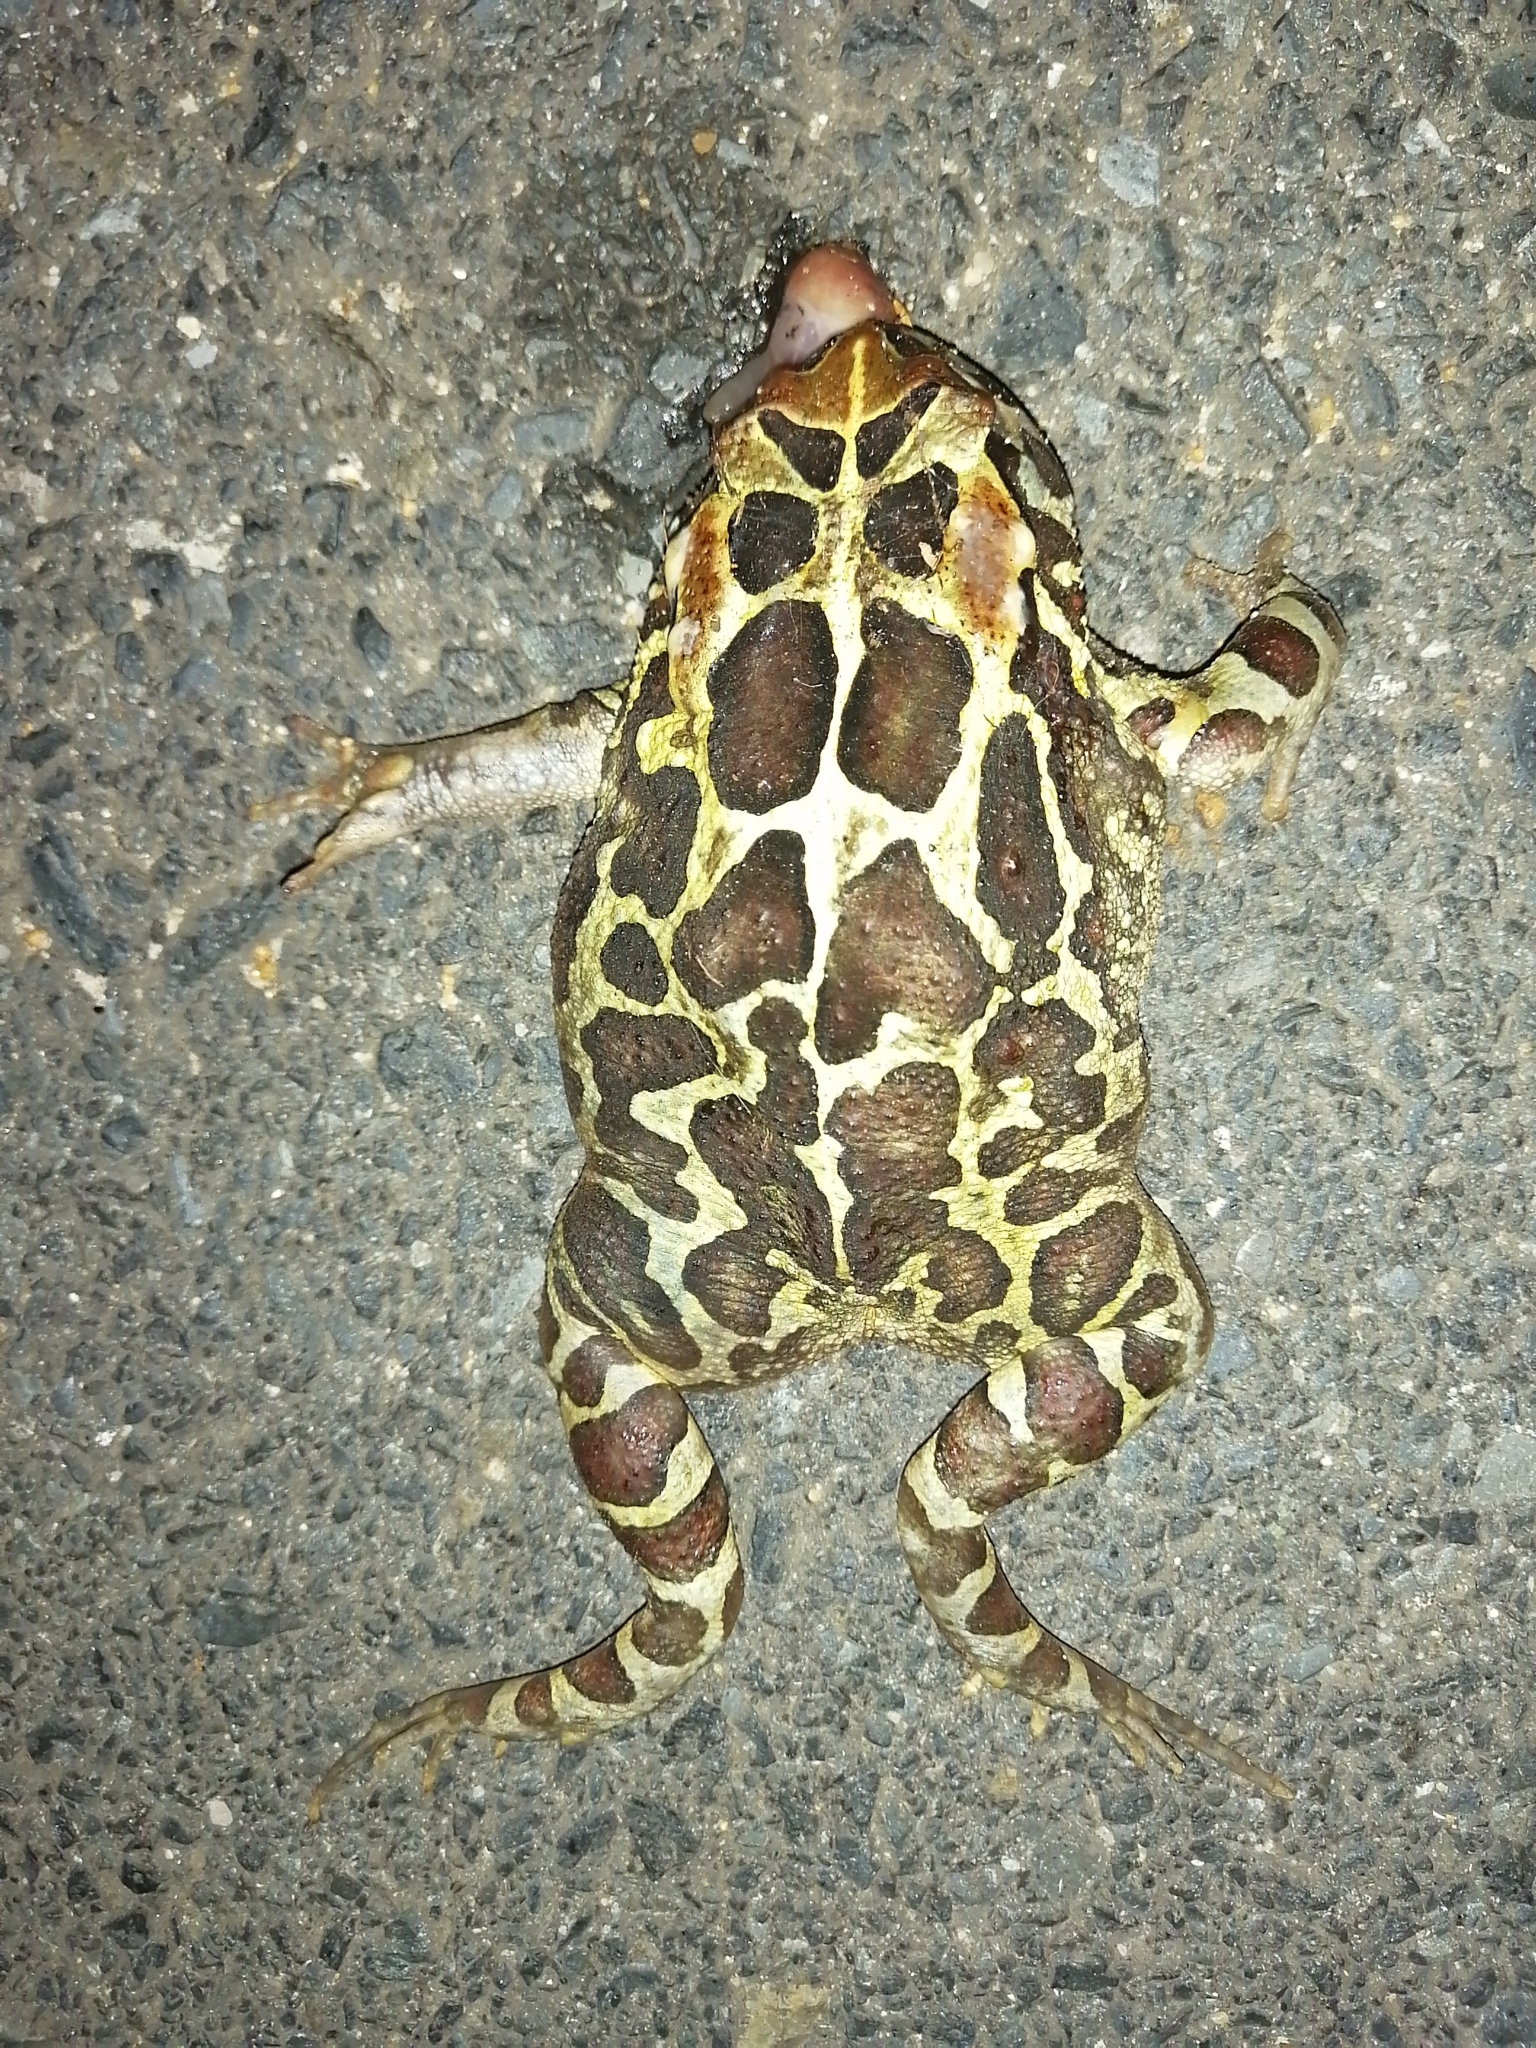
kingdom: Animalia
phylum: Chordata
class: Amphibia
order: Anura
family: Bufonidae
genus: Sclerophrys
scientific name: Sclerophrys pantherina
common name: Panther toad
